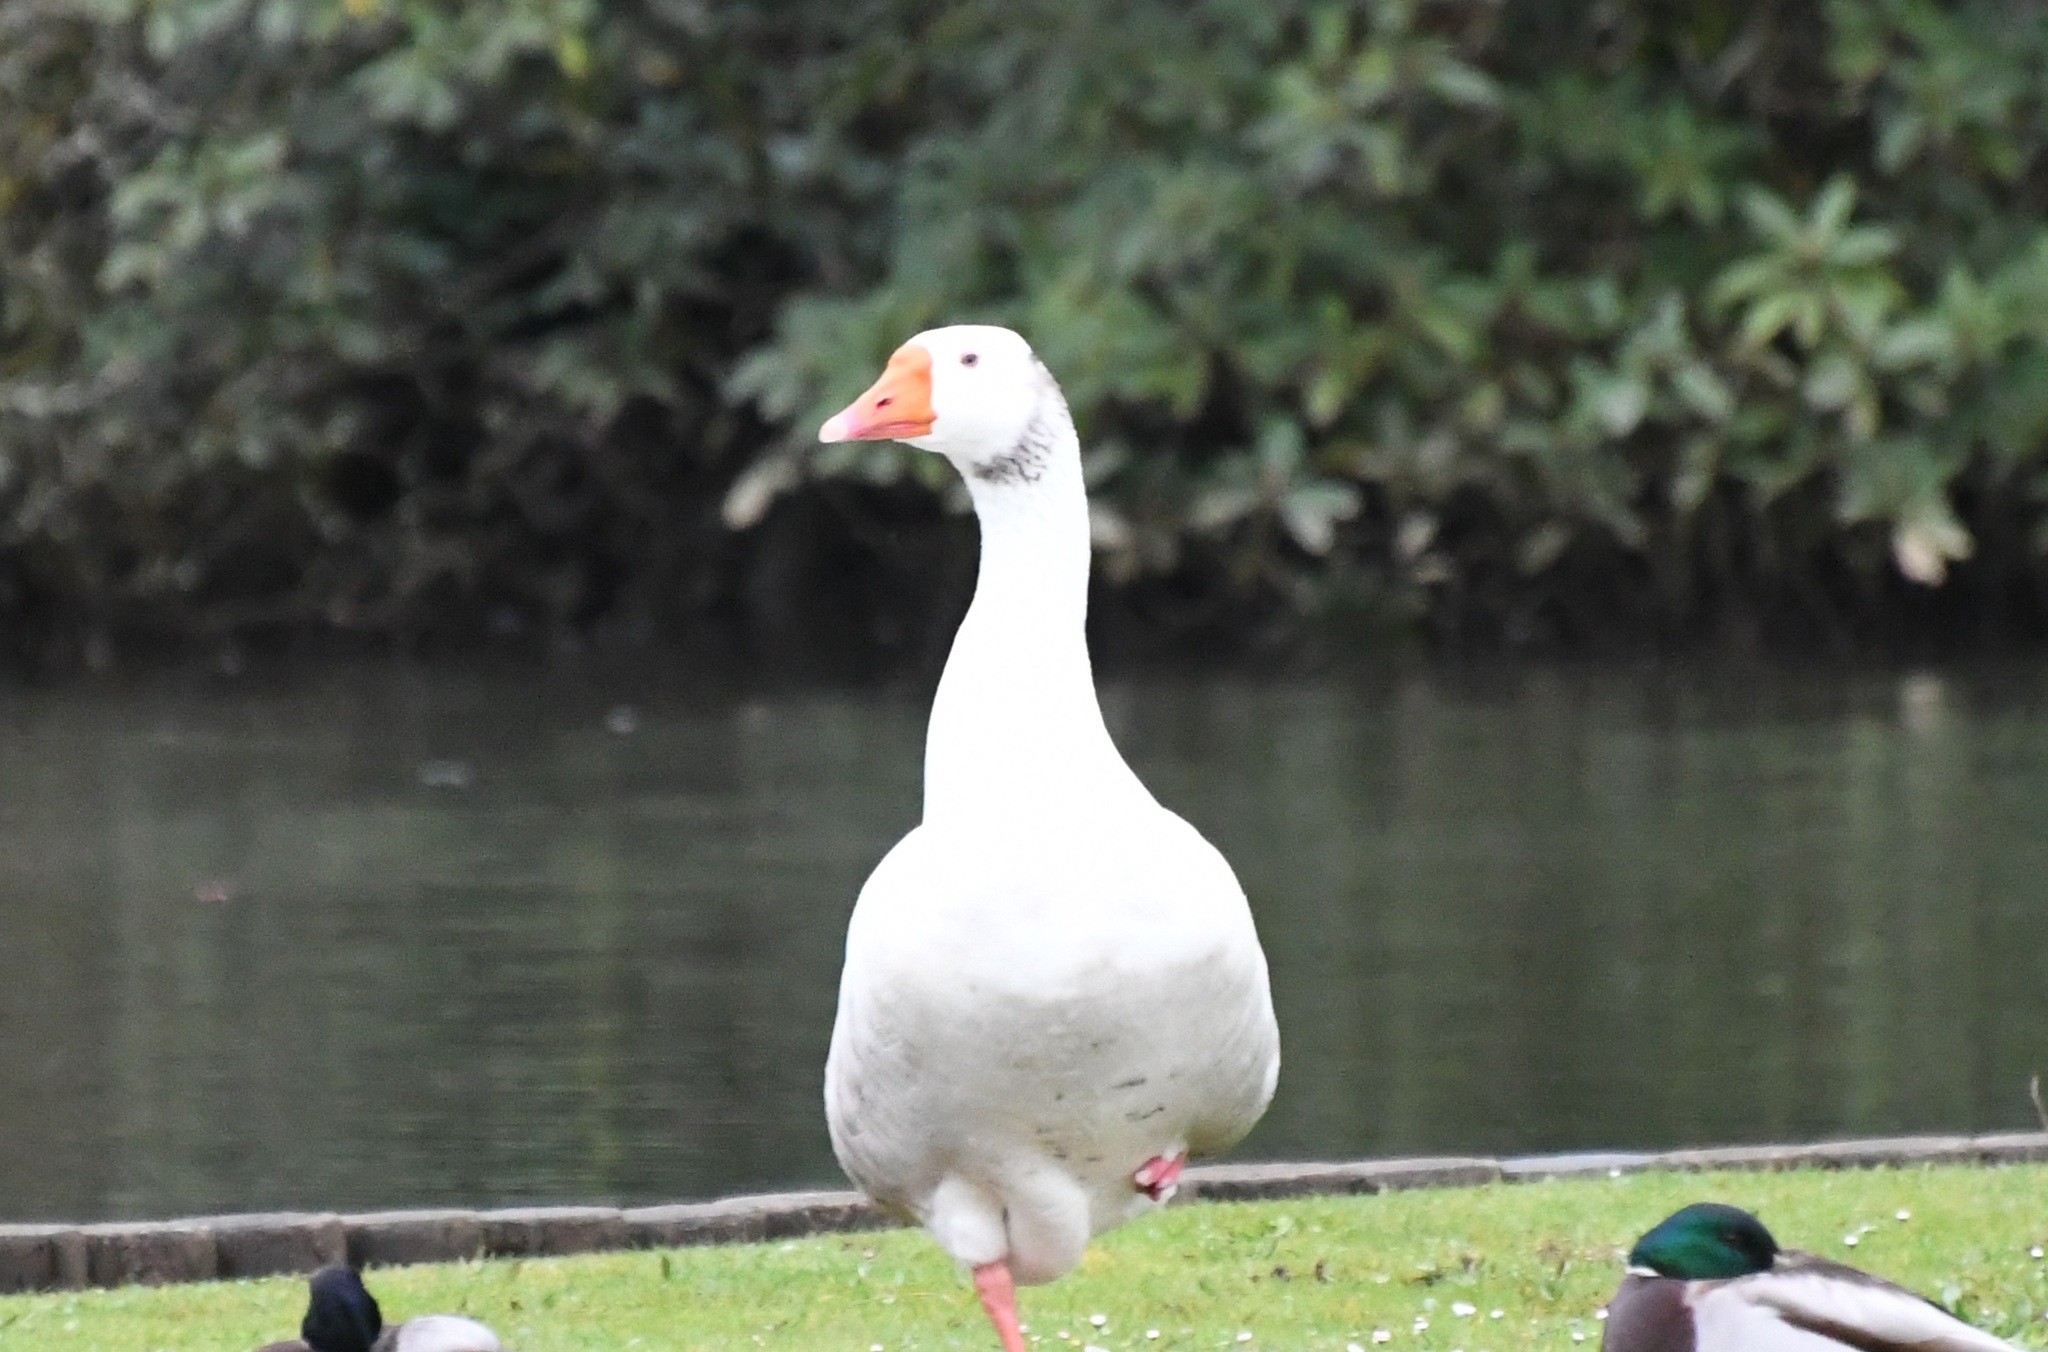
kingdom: Animalia
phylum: Chordata
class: Aves
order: Anseriformes
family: Anatidae
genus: Anser
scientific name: Anser anser
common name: Greylag goose
